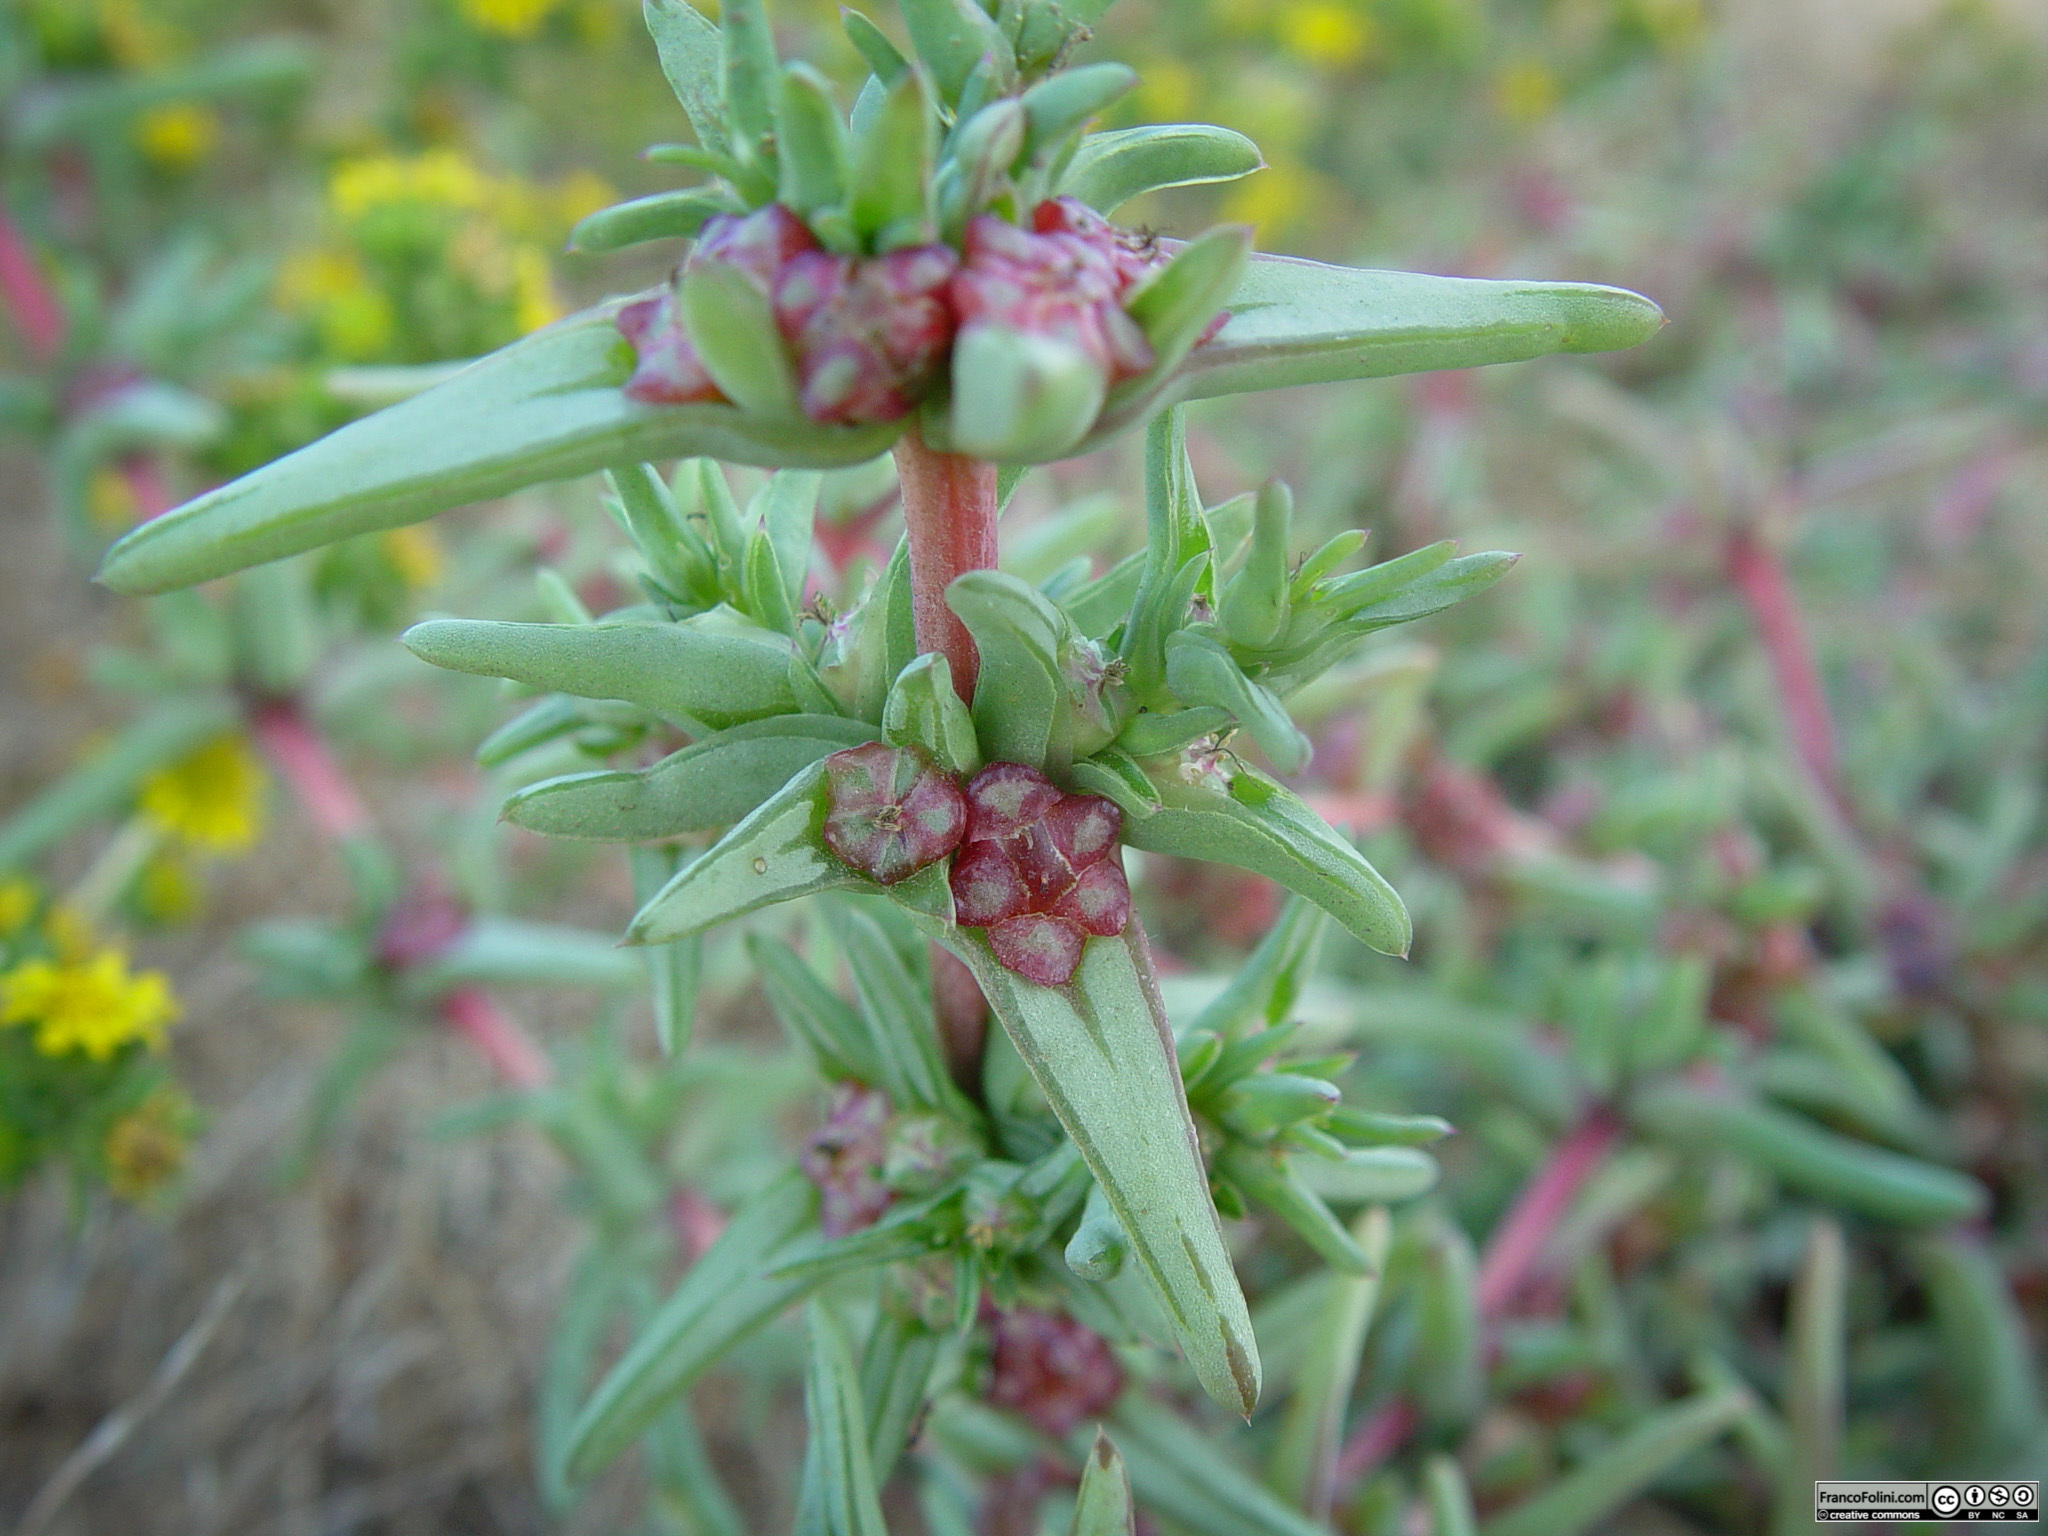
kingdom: Plantae
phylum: Tracheophyta
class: Magnoliopsida
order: Caryophyllales
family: Amaranthaceae
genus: Salsola
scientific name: Salsola soda
